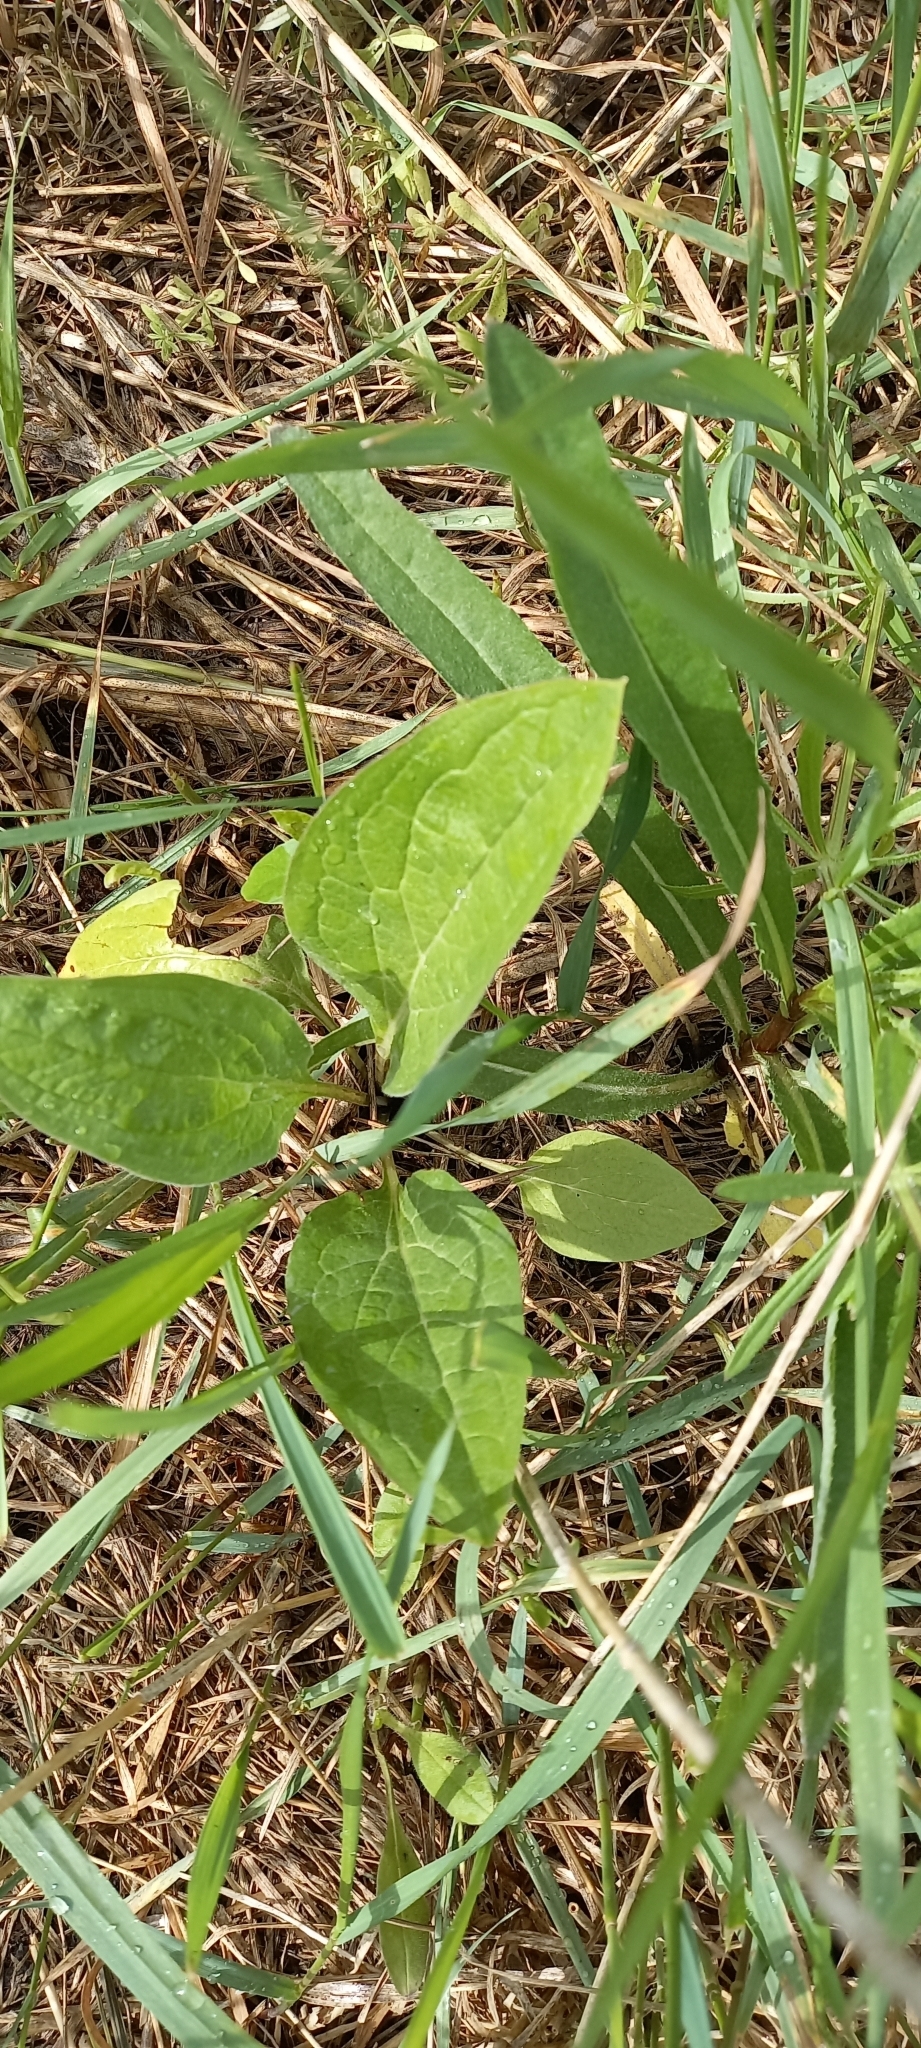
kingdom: Plantae
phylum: Tracheophyta
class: Magnoliopsida
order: Boraginales
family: Boraginaceae
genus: Cynoglossum
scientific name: Cynoglossum officinale
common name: Hound's-tongue
